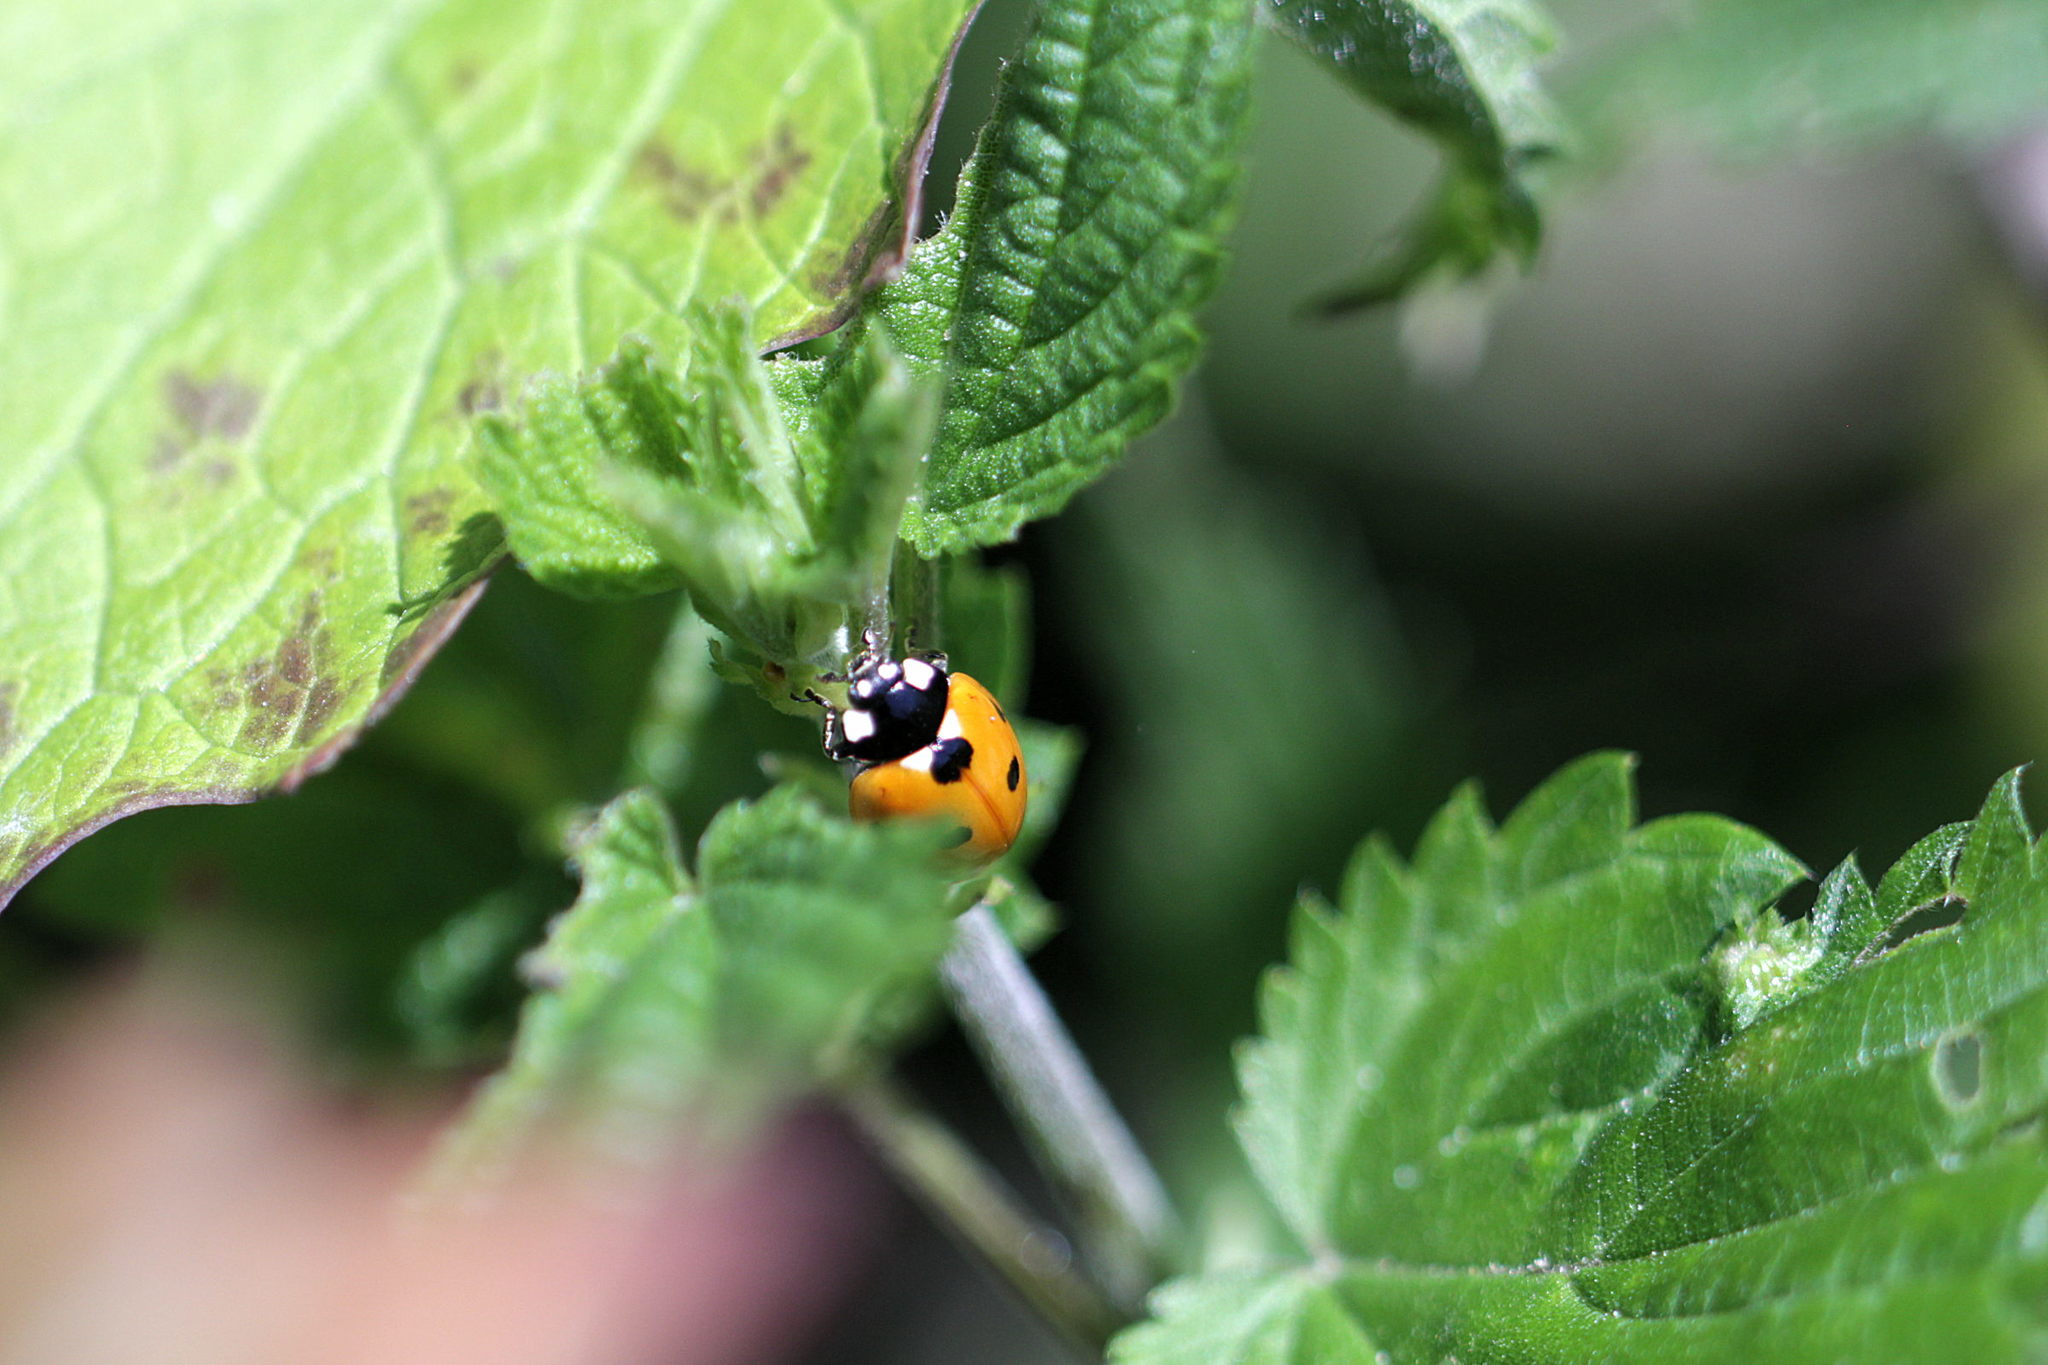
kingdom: Animalia
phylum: Arthropoda
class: Insecta
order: Coleoptera
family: Coccinellidae
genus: Coccinella
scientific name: Coccinella septempunctata
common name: Sevenspotted lady beetle
